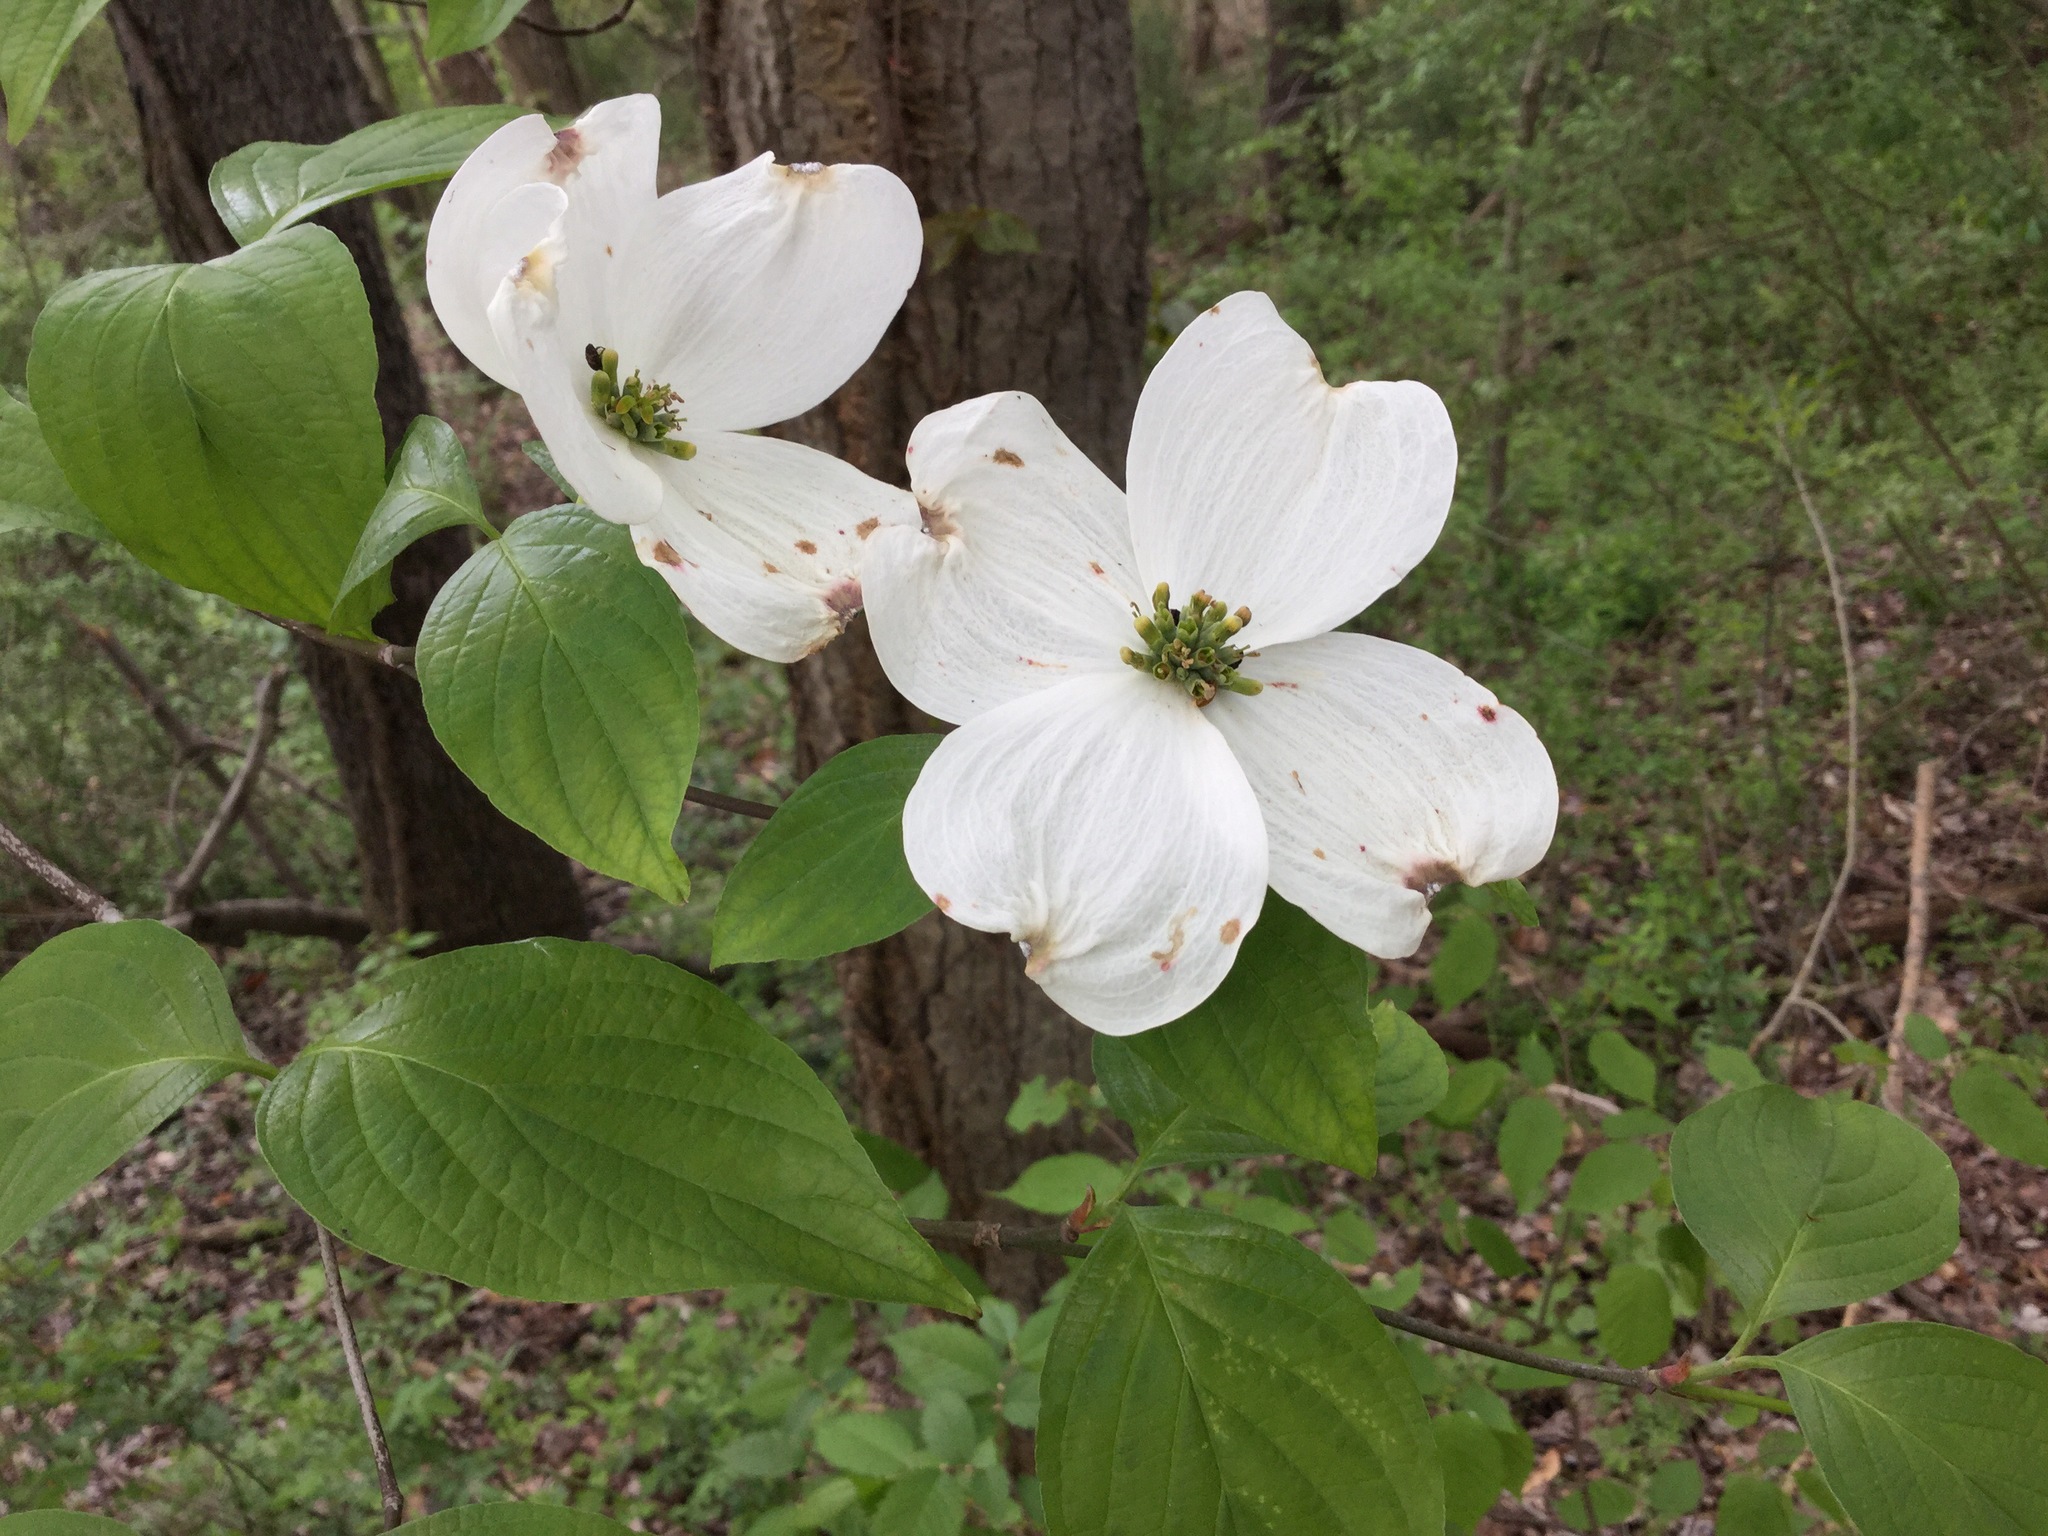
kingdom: Plantae
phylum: Tracheophyta
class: Magnoliopsida
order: Cornales
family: Cornaceae
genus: Cornus
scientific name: Cornus florida
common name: Flowering dogwood
